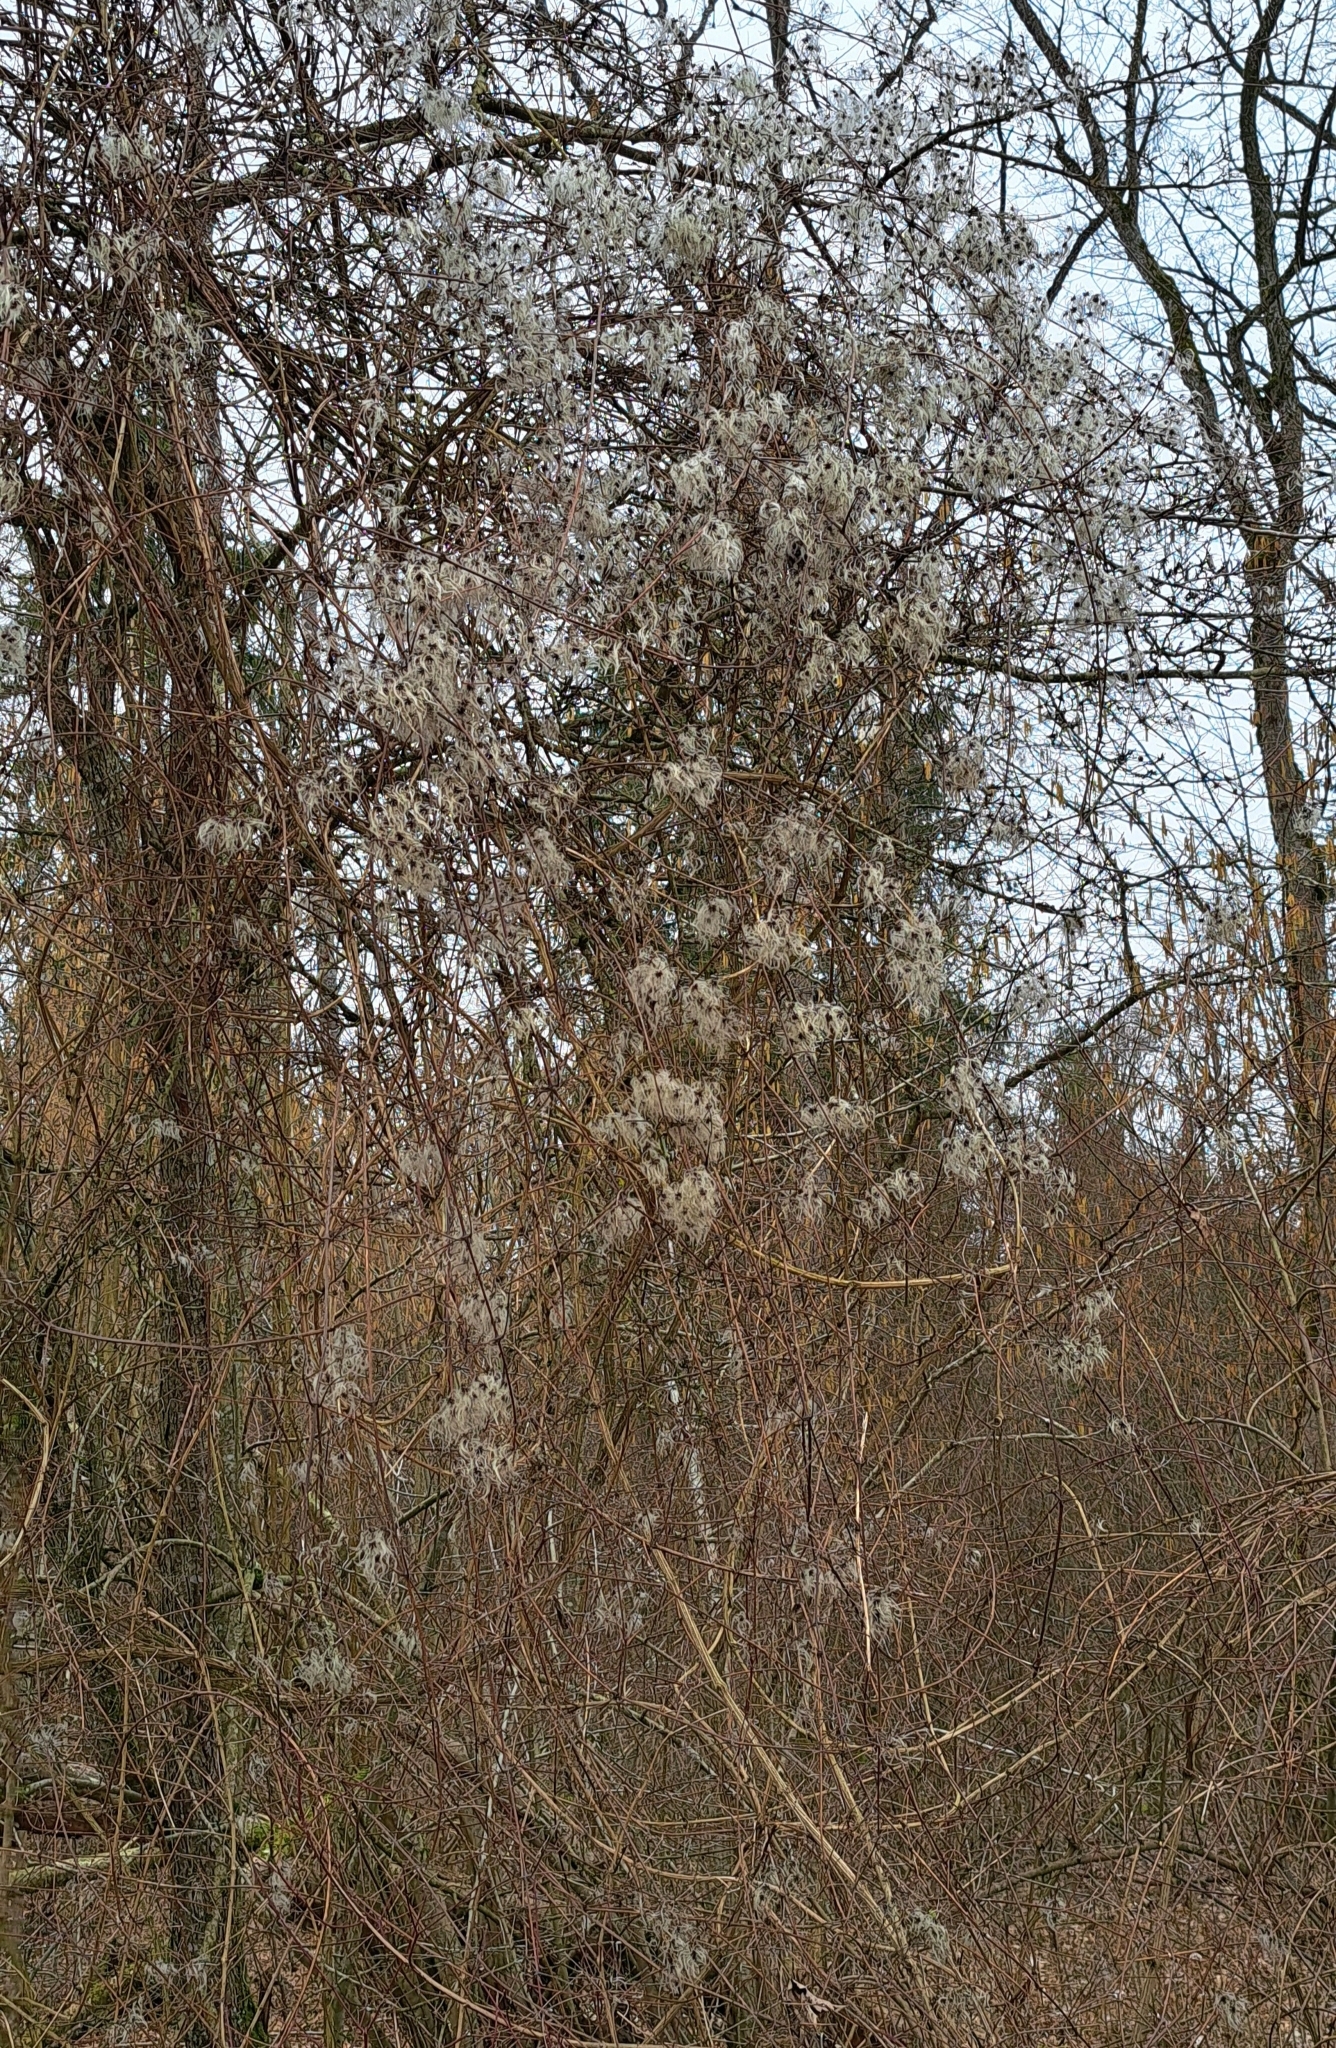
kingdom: Plantae
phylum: Tracheophyta
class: Magnoliopsida
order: Ranunculales
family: Ranunculaceae
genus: Clematis
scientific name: Clematis vitalba
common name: Evergreen clematis
